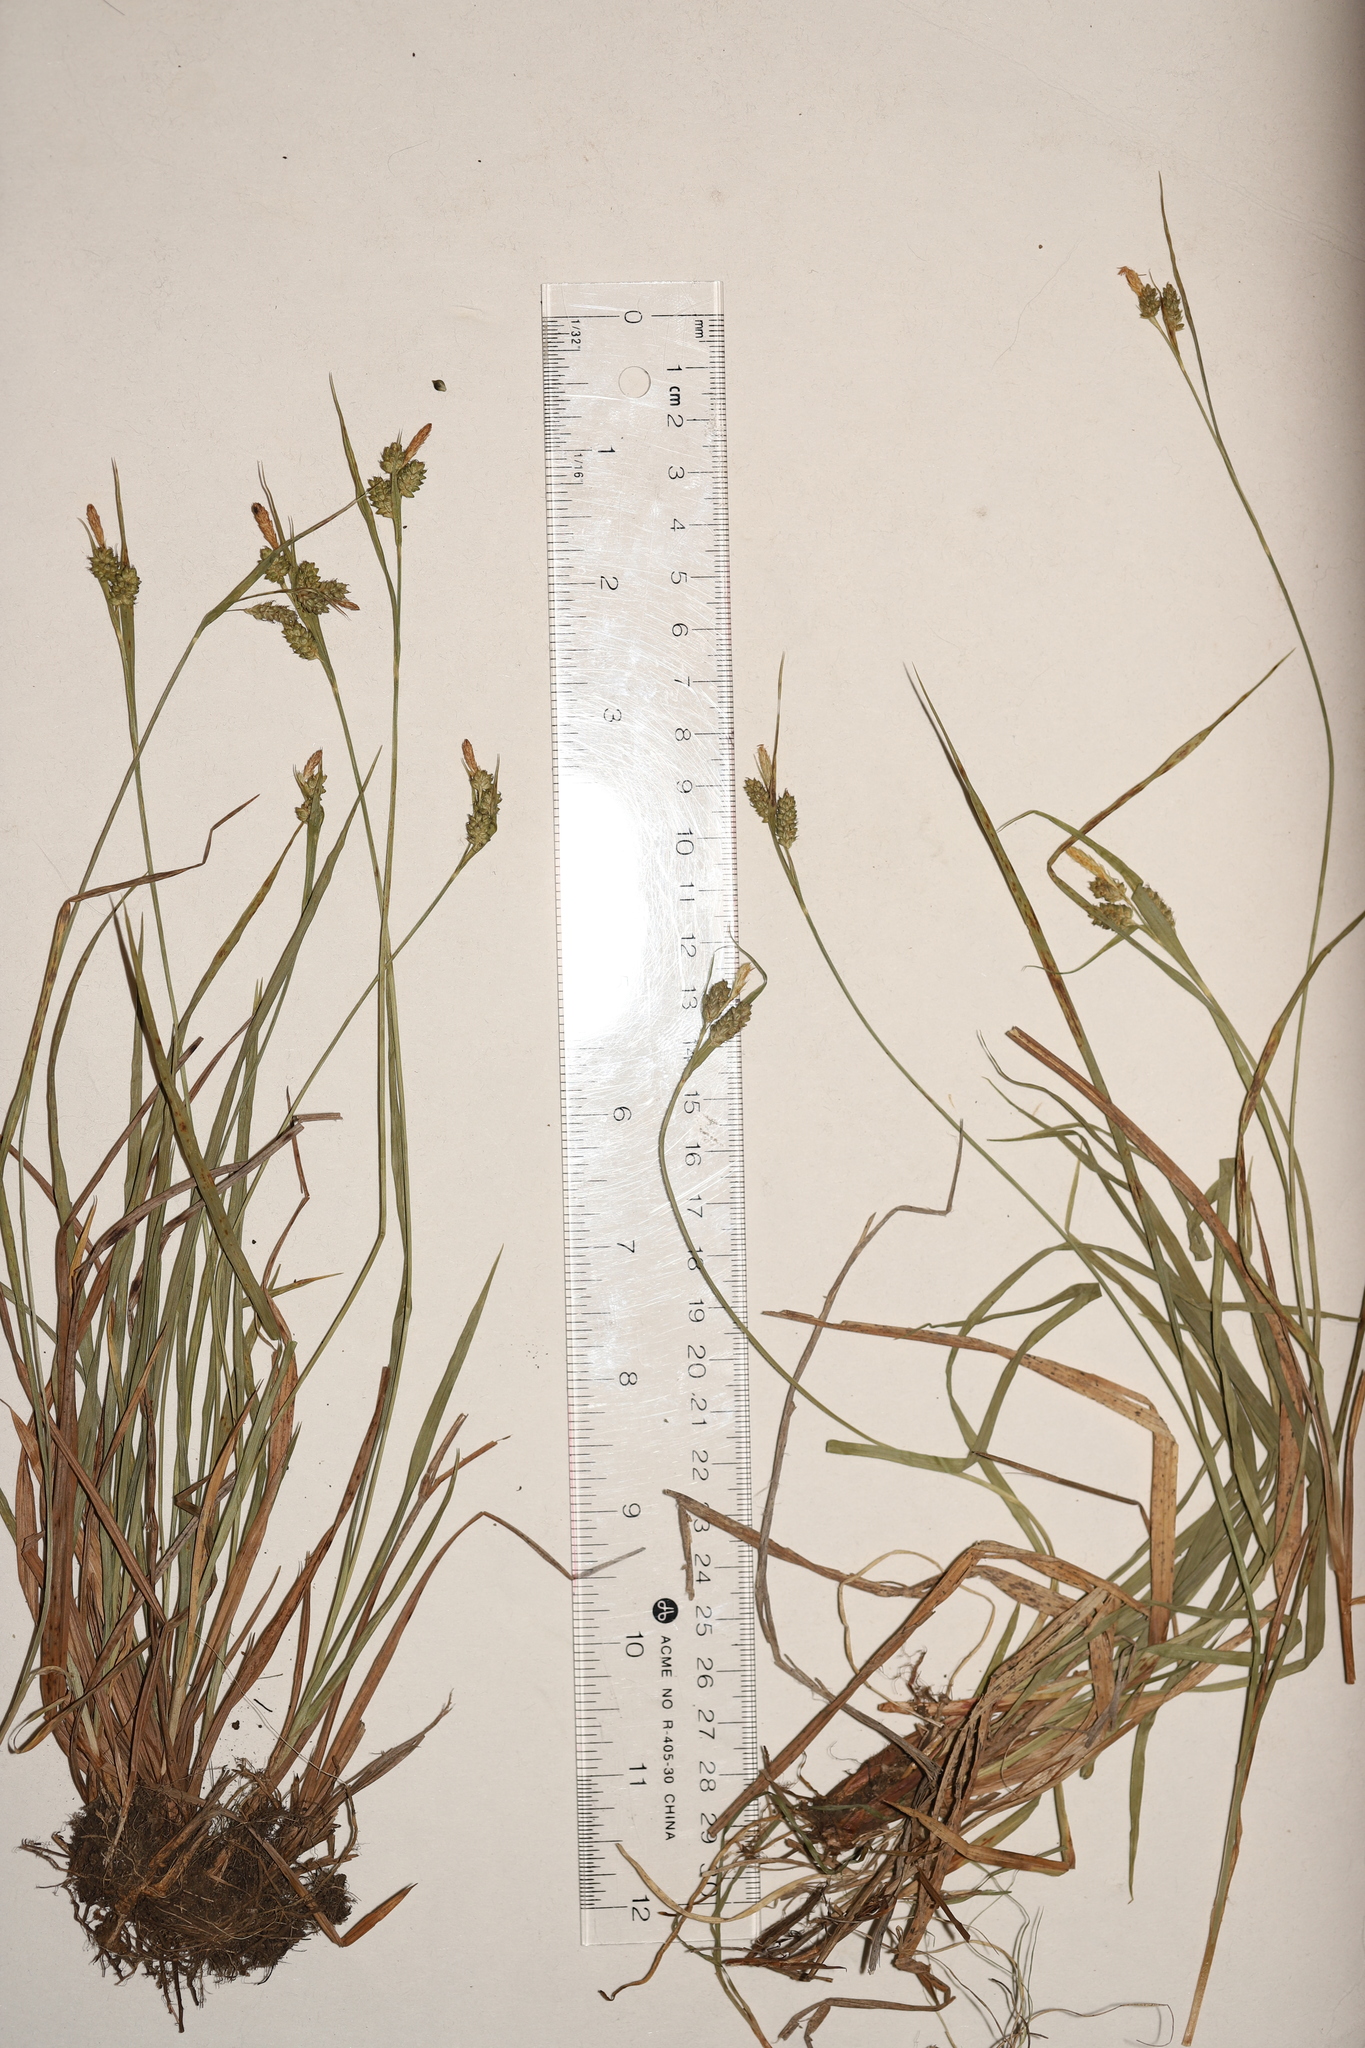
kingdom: Plantae
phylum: Tracheophyta
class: Liliopsida
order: Poales
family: Cyperaceae
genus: Carex
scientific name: Carex pallescens
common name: Pale sedge
